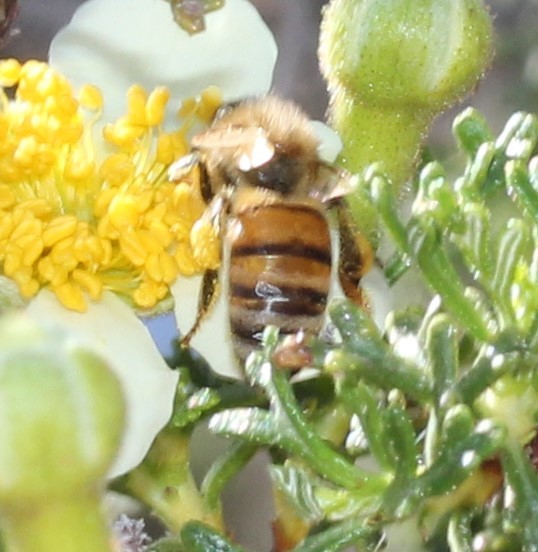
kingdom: Animalia
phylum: Arthropoda
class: Insecta
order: Hymenoptera
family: Apidae
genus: Apis
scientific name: Apis mellifera
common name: Honey bee
